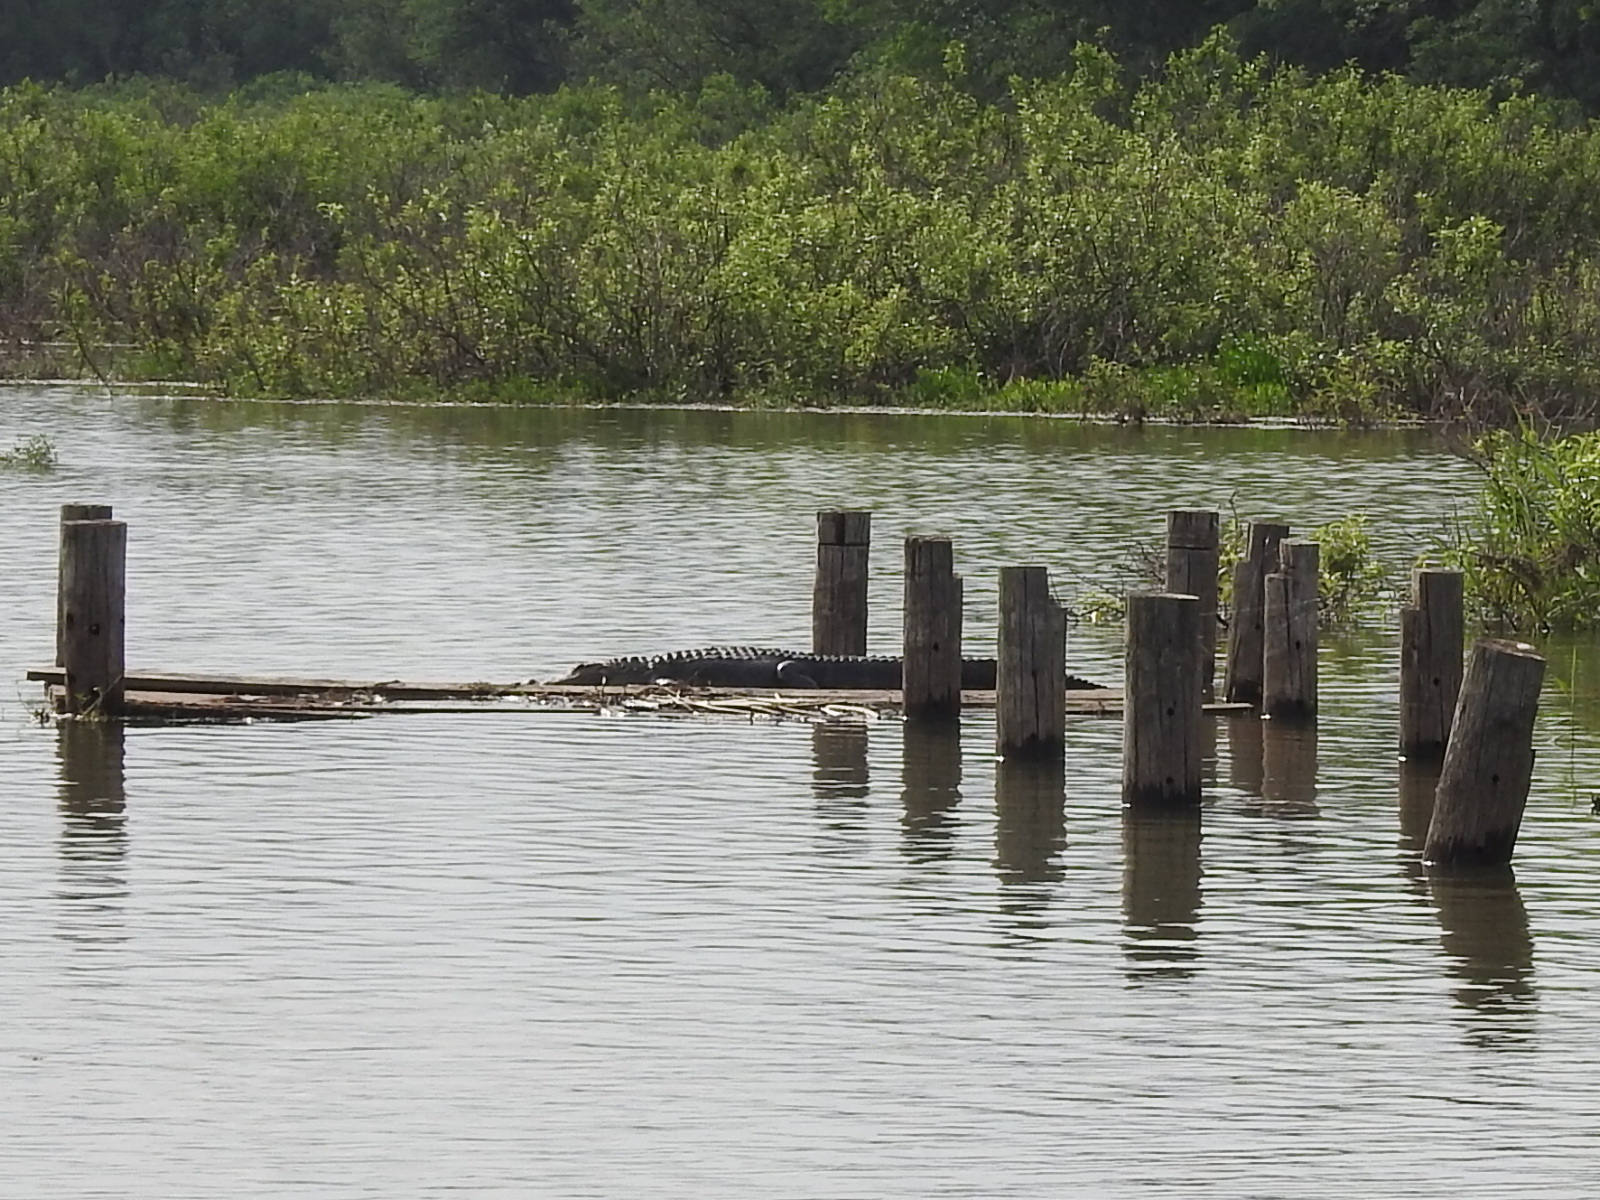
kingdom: Animalia
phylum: Chordata
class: Crocodylia
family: Alligatoridae
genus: Alligator
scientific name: Alligator mississippiensis
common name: American alligator
